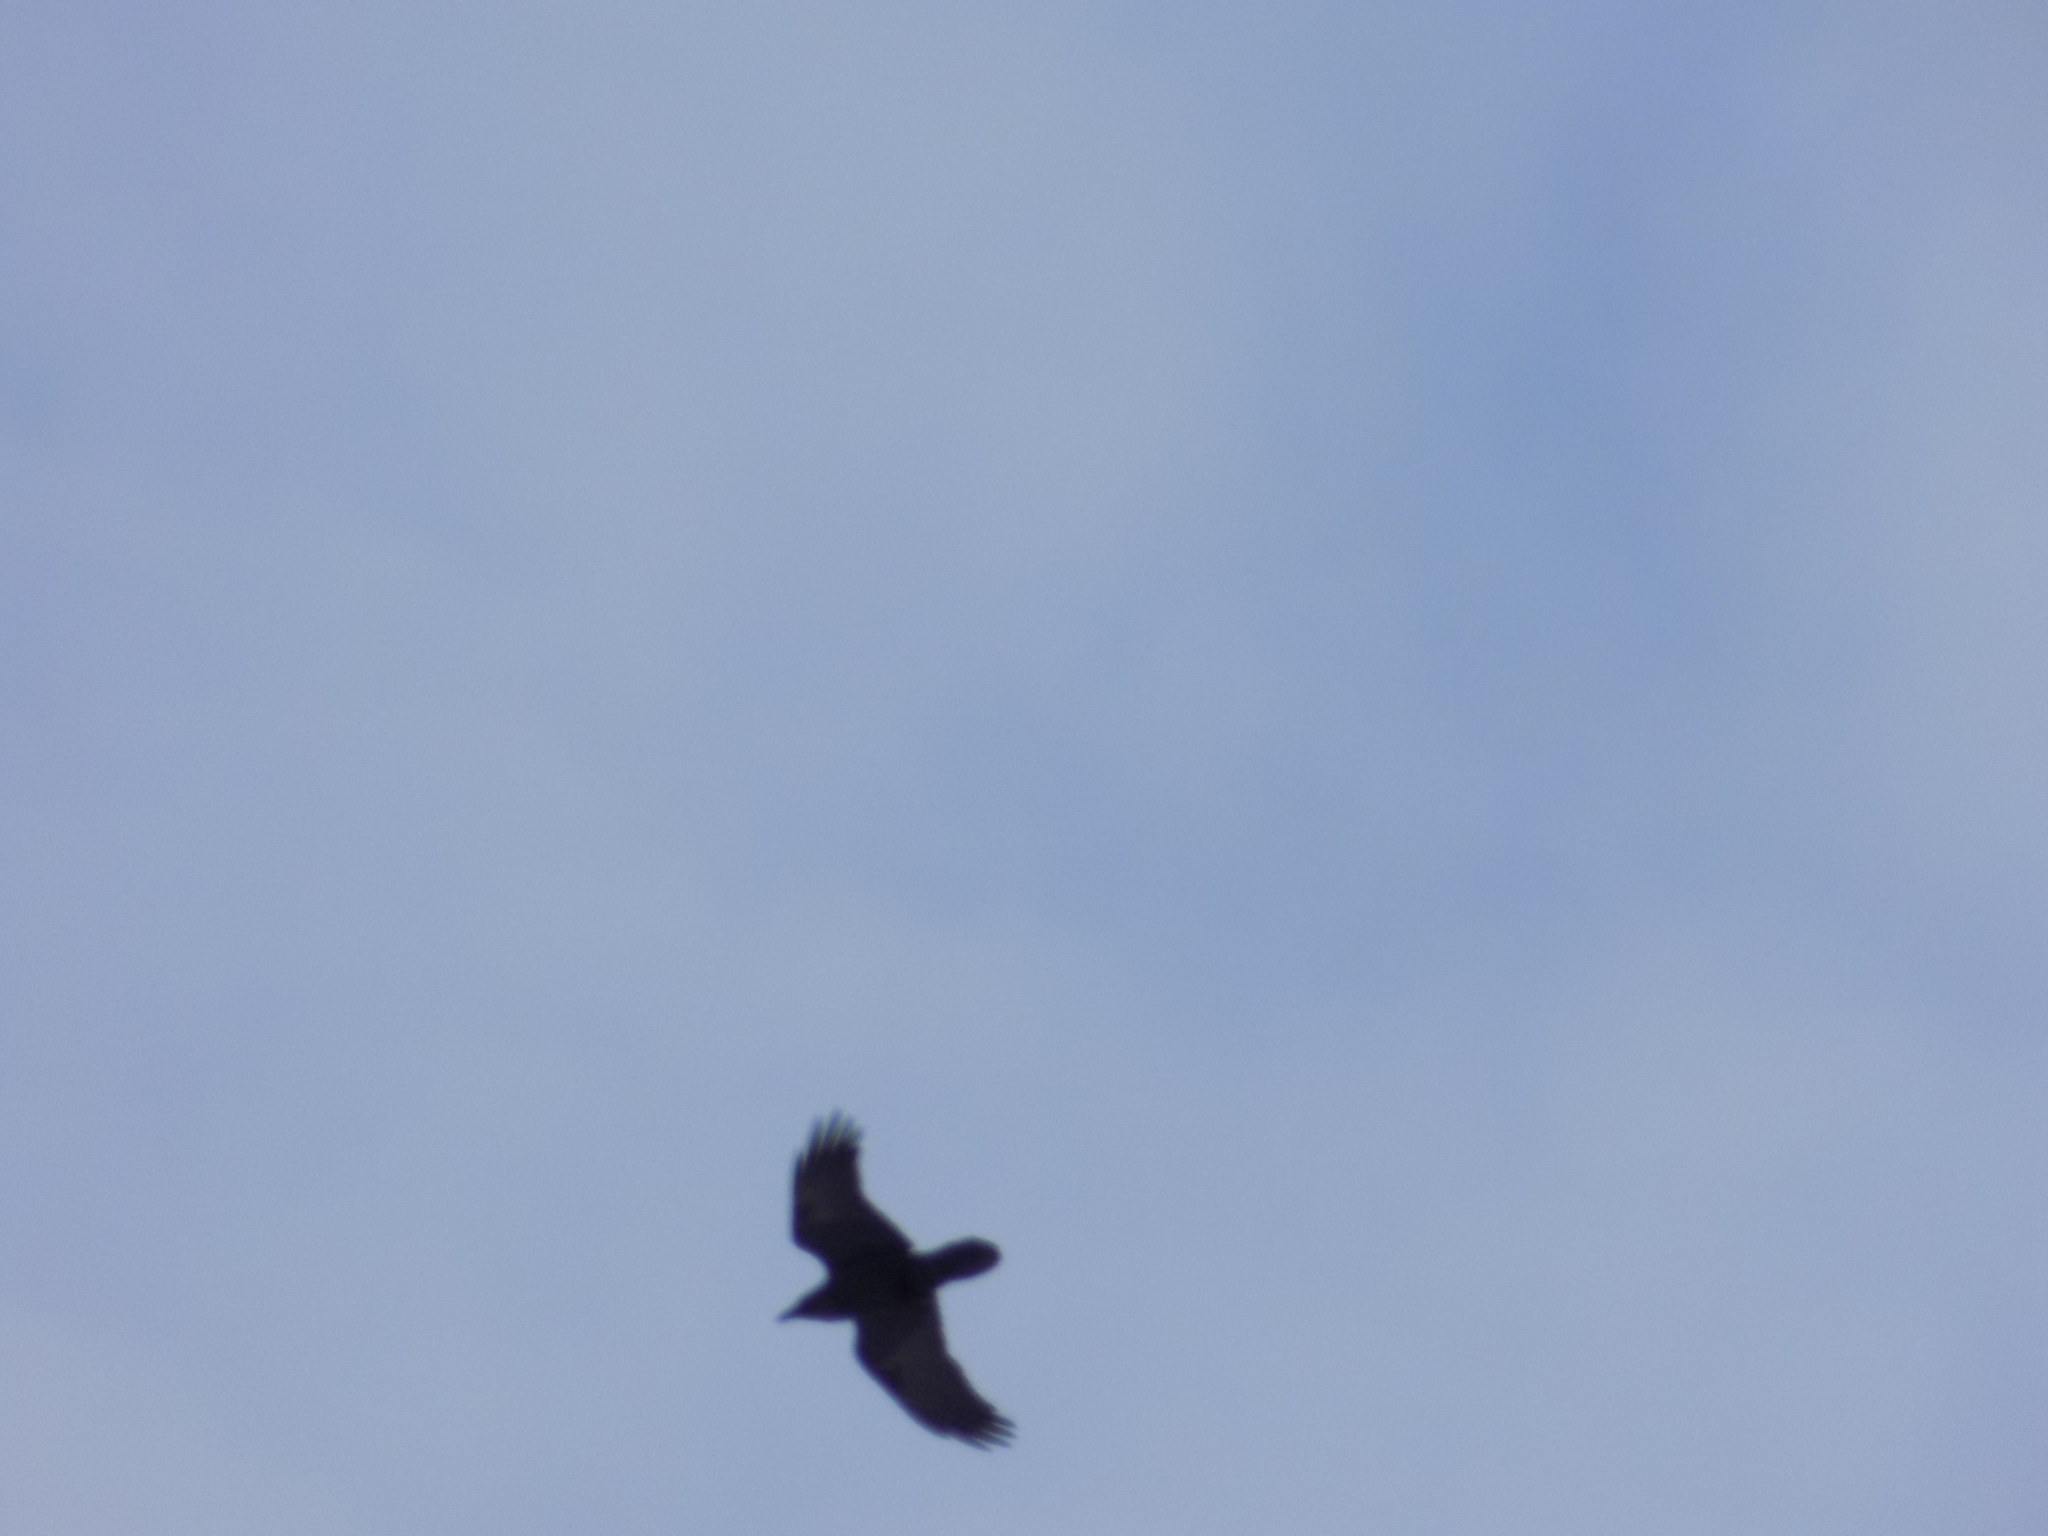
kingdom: Animalia
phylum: Chordata
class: Aves
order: Passeriformes
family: Corvidae
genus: Corvus
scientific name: Corvus corax
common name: Common raven
